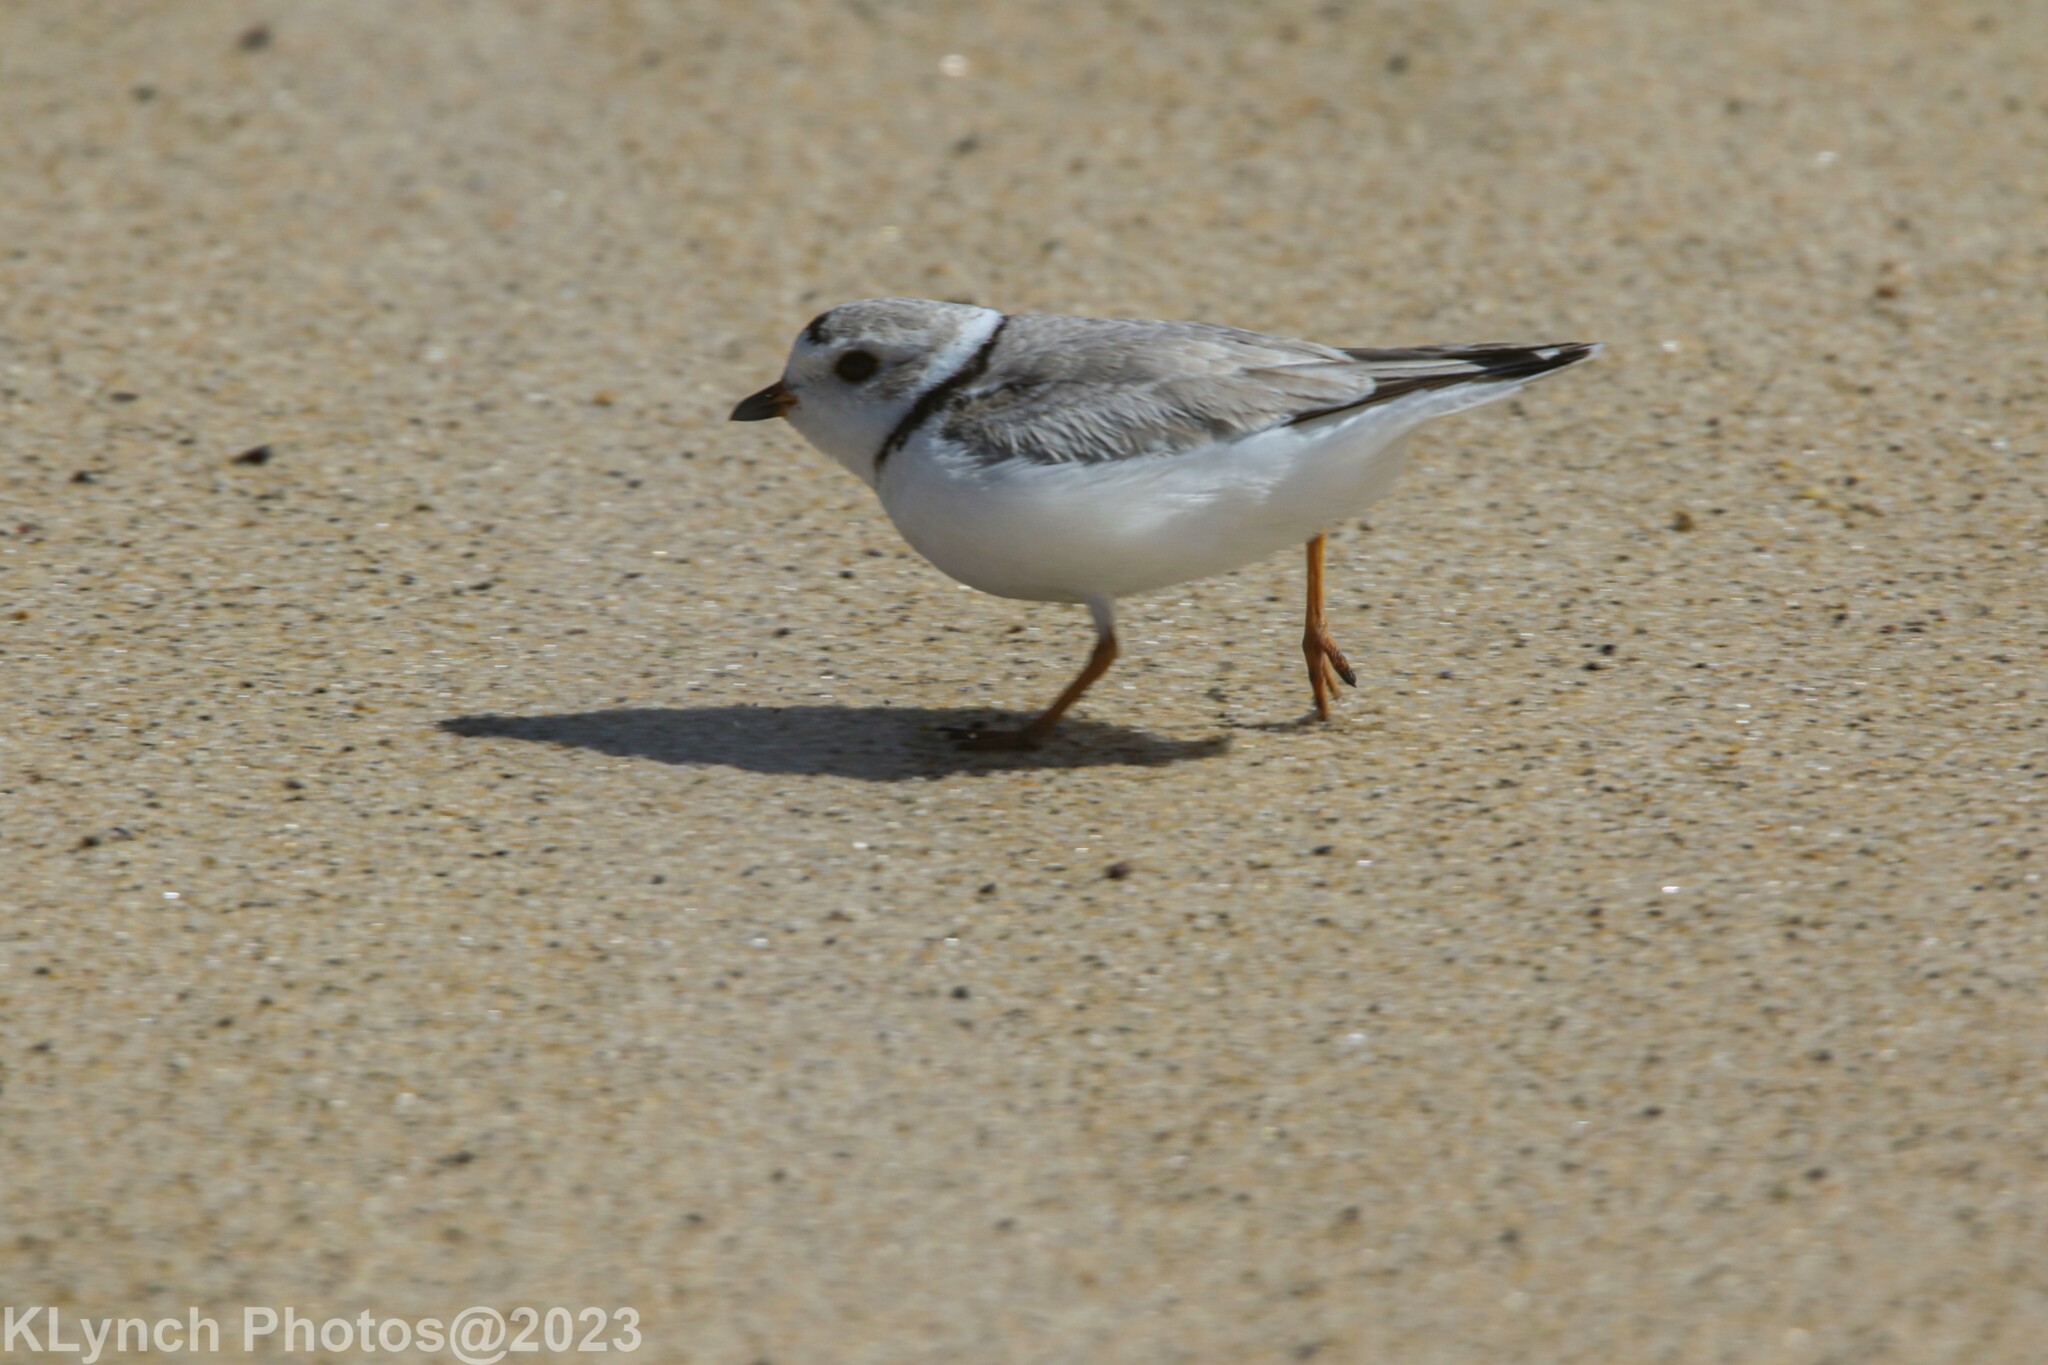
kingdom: Animalia
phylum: Chordata
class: Aves
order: Charadriiformes
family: Charadriidae
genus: Charadrius
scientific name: Charadrius melodus
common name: Piping plover
